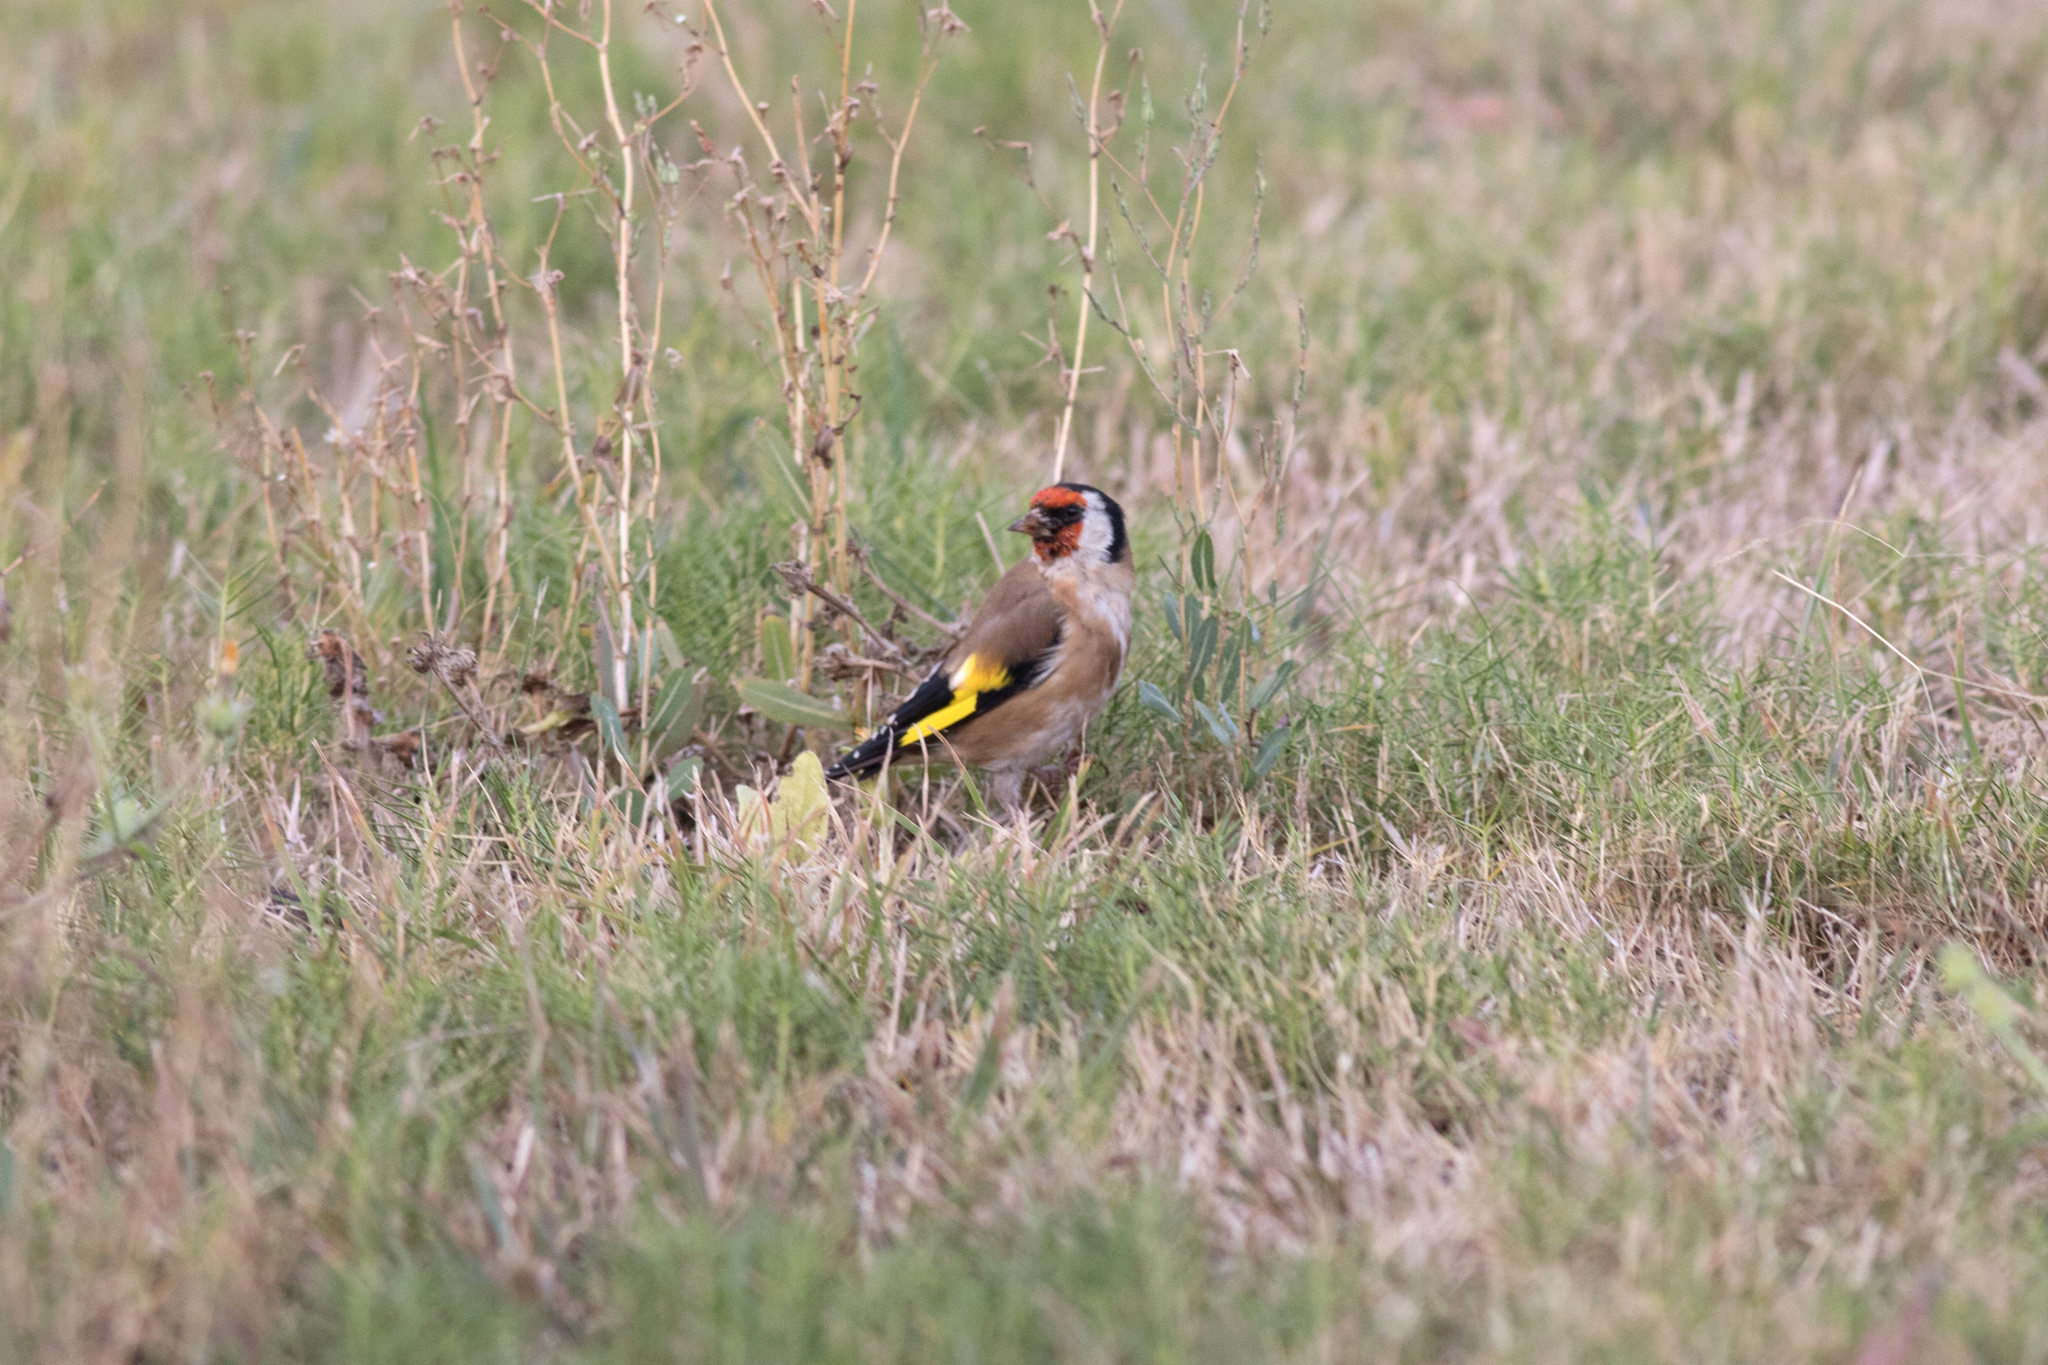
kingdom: Animalia
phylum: Chordata
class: Aves
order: Passeriformes
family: Fringillidae
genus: Carduelis
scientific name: Carduelis carduelis
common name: European goldfinch
